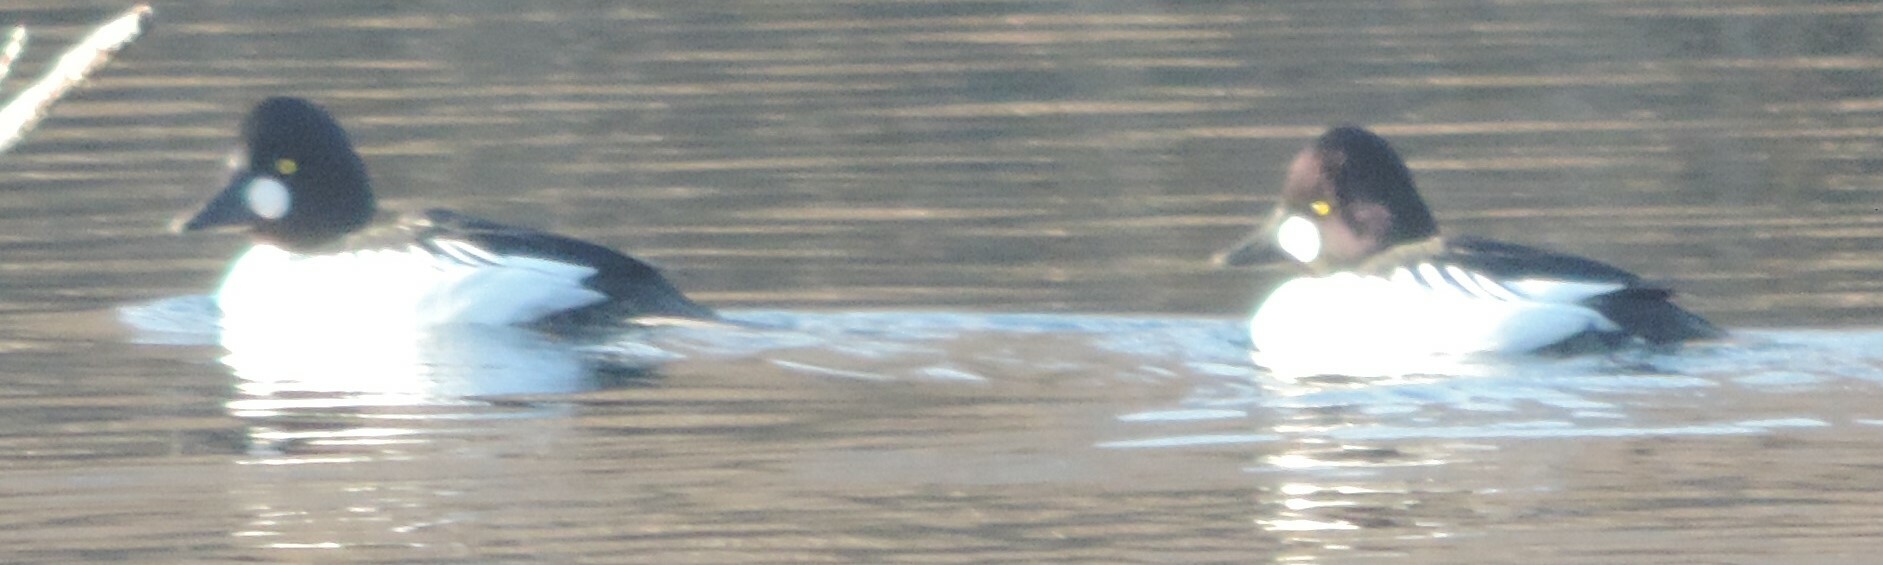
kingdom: Animalia
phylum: Chordata
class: Aves
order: Anseriformes
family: Anatidae
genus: Bucephala
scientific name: Bucephala clangula
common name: Common goldeneye
